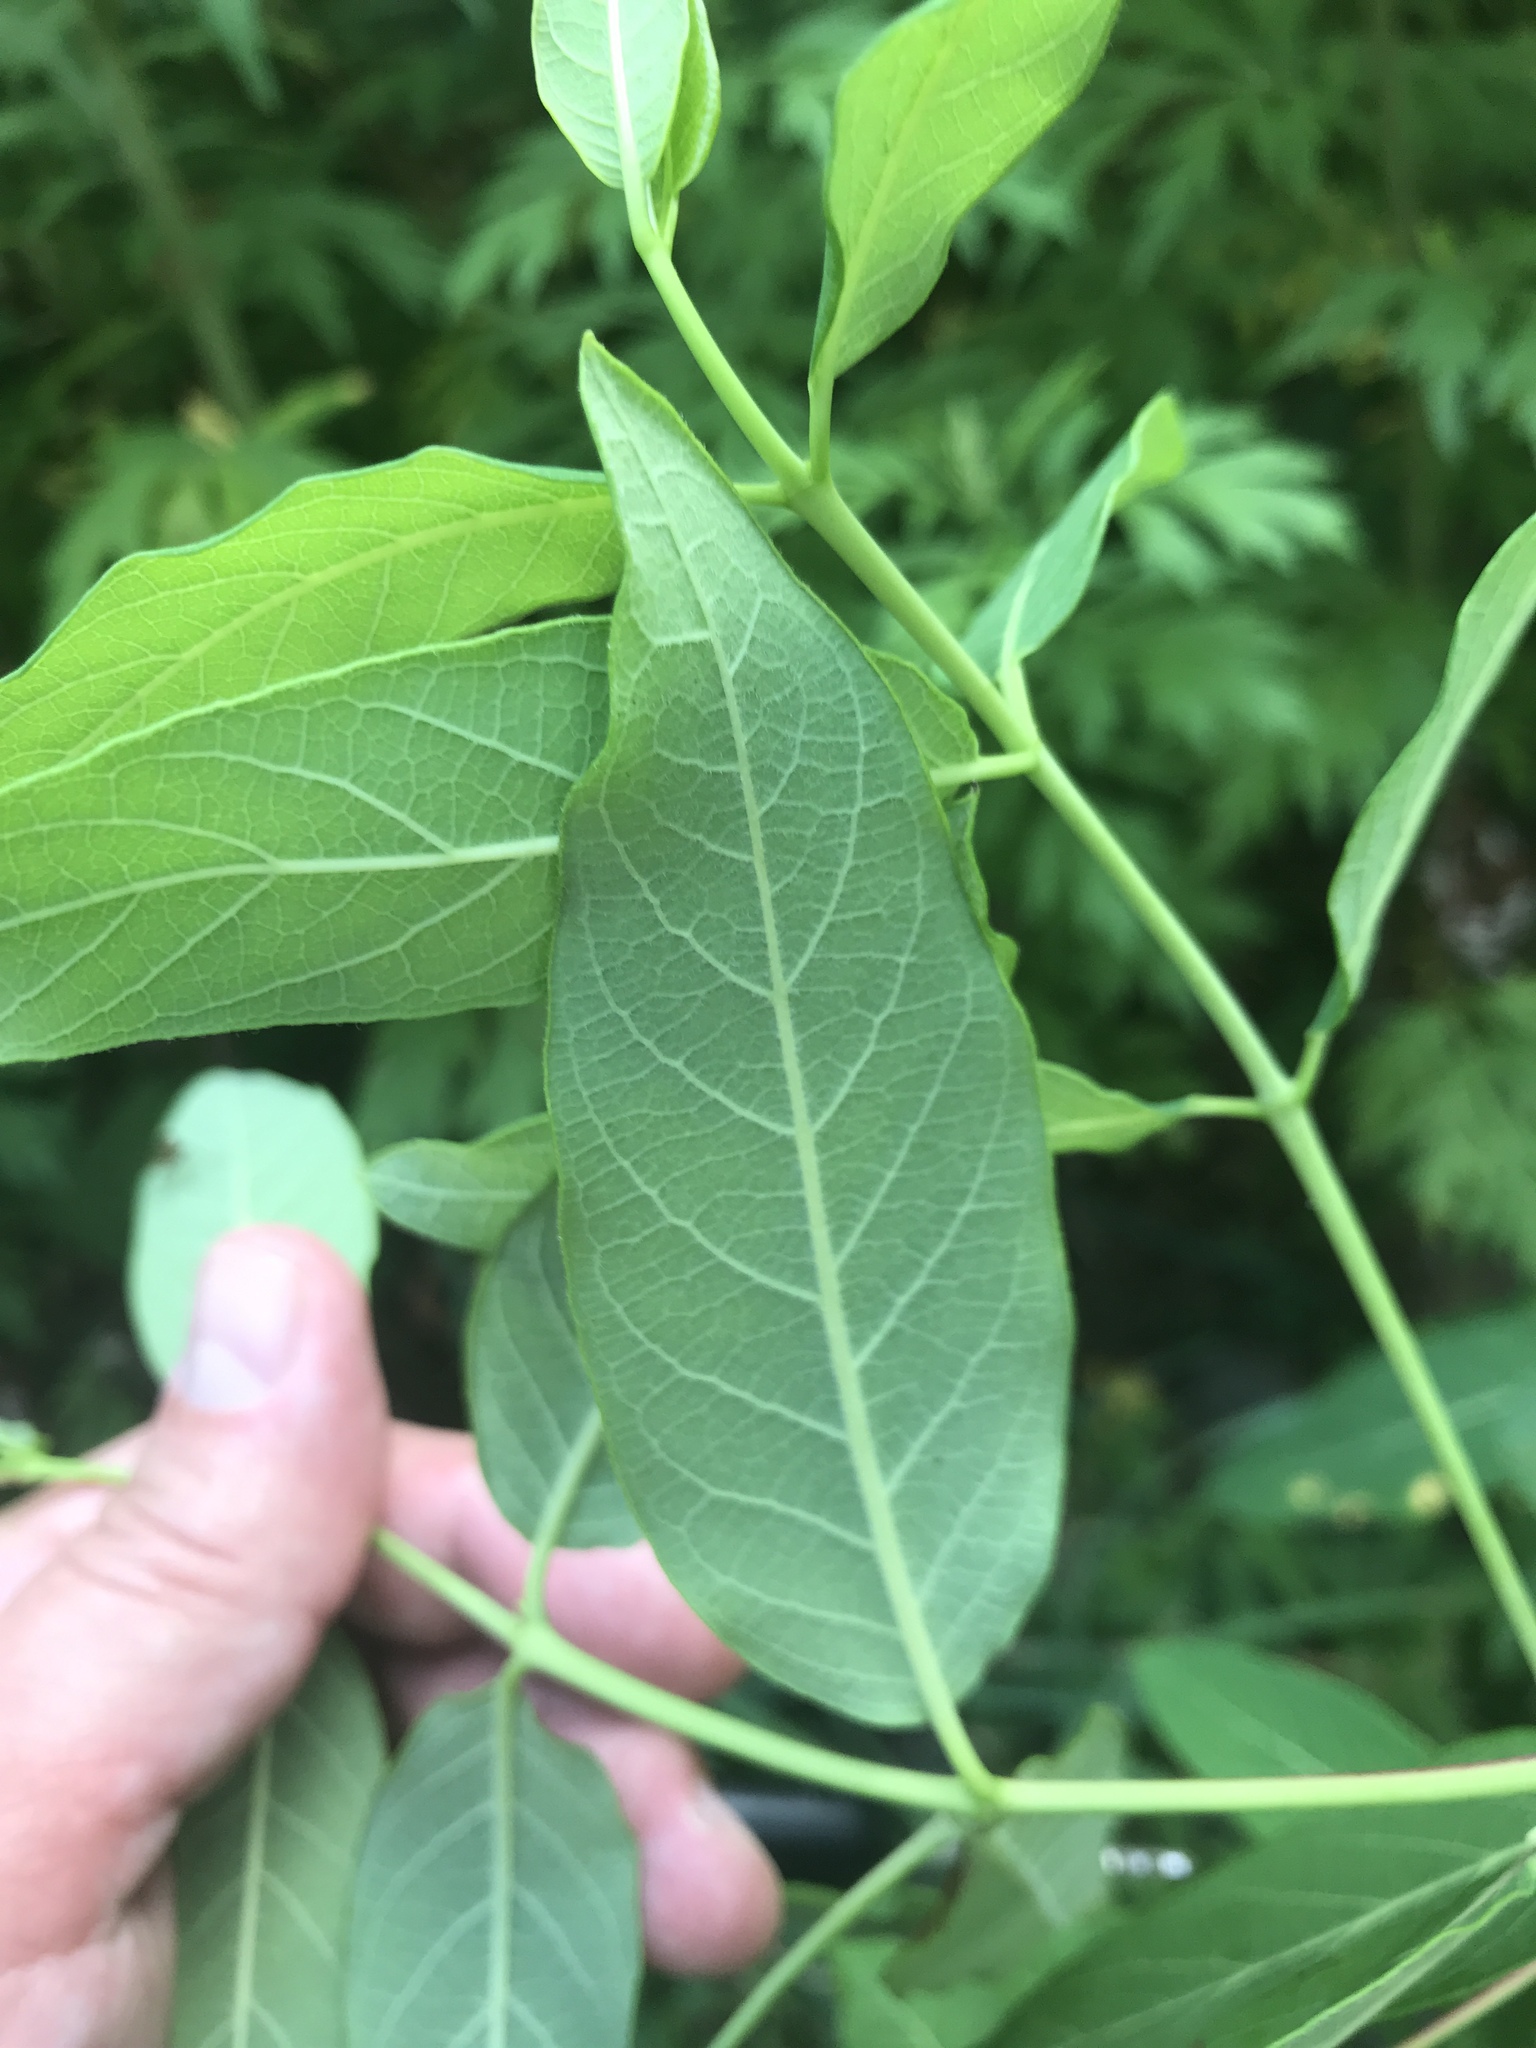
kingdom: Plantae
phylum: Tracheophyta
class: Magnoliopsida
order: Gentianales
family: Apocynaceae
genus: Apocynum
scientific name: Apocynum cannabinum
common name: Hemp dogbane
